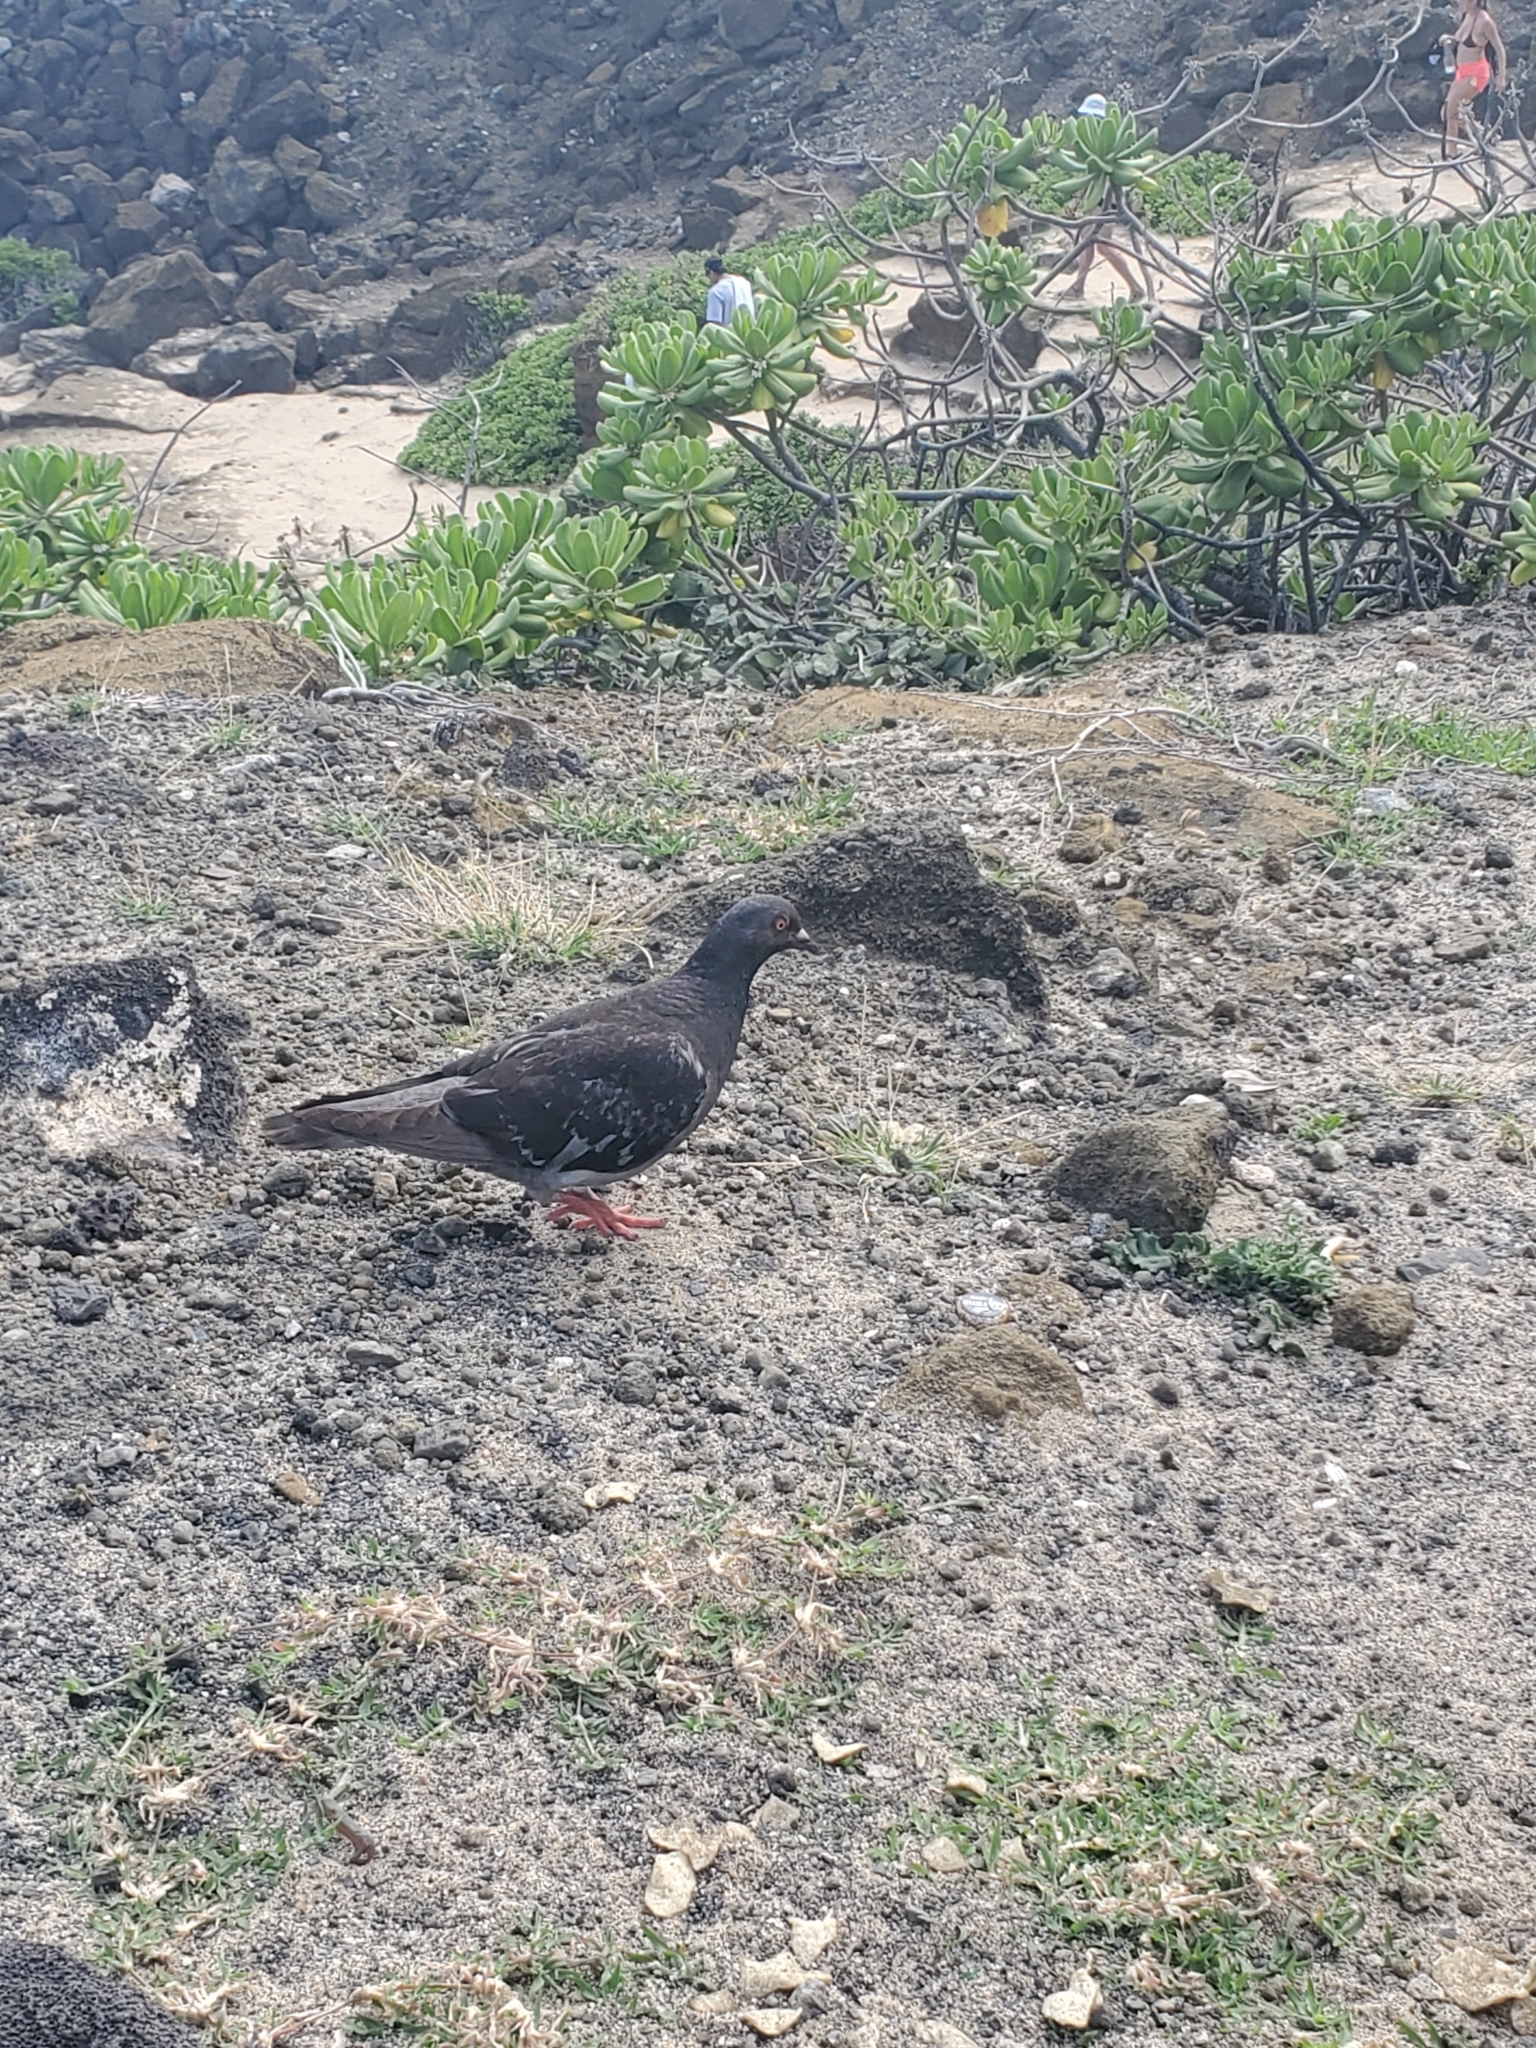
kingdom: Animalia
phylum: Chordata
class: Aves
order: Columbiformes
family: Columbidae
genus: Columba
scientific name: Columba livia
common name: Rock pigeon
